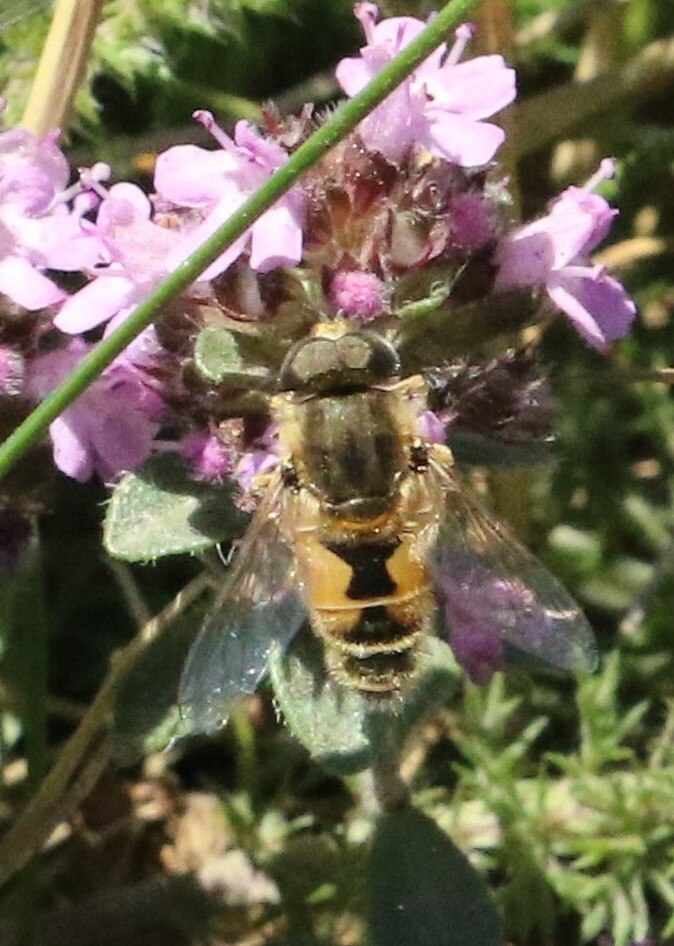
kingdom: Animalia
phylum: Arthropoda
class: Insecta
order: Diptera
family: Syrphidae
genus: Eristalis
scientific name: Eristalis arbustorum
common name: Hover fly
